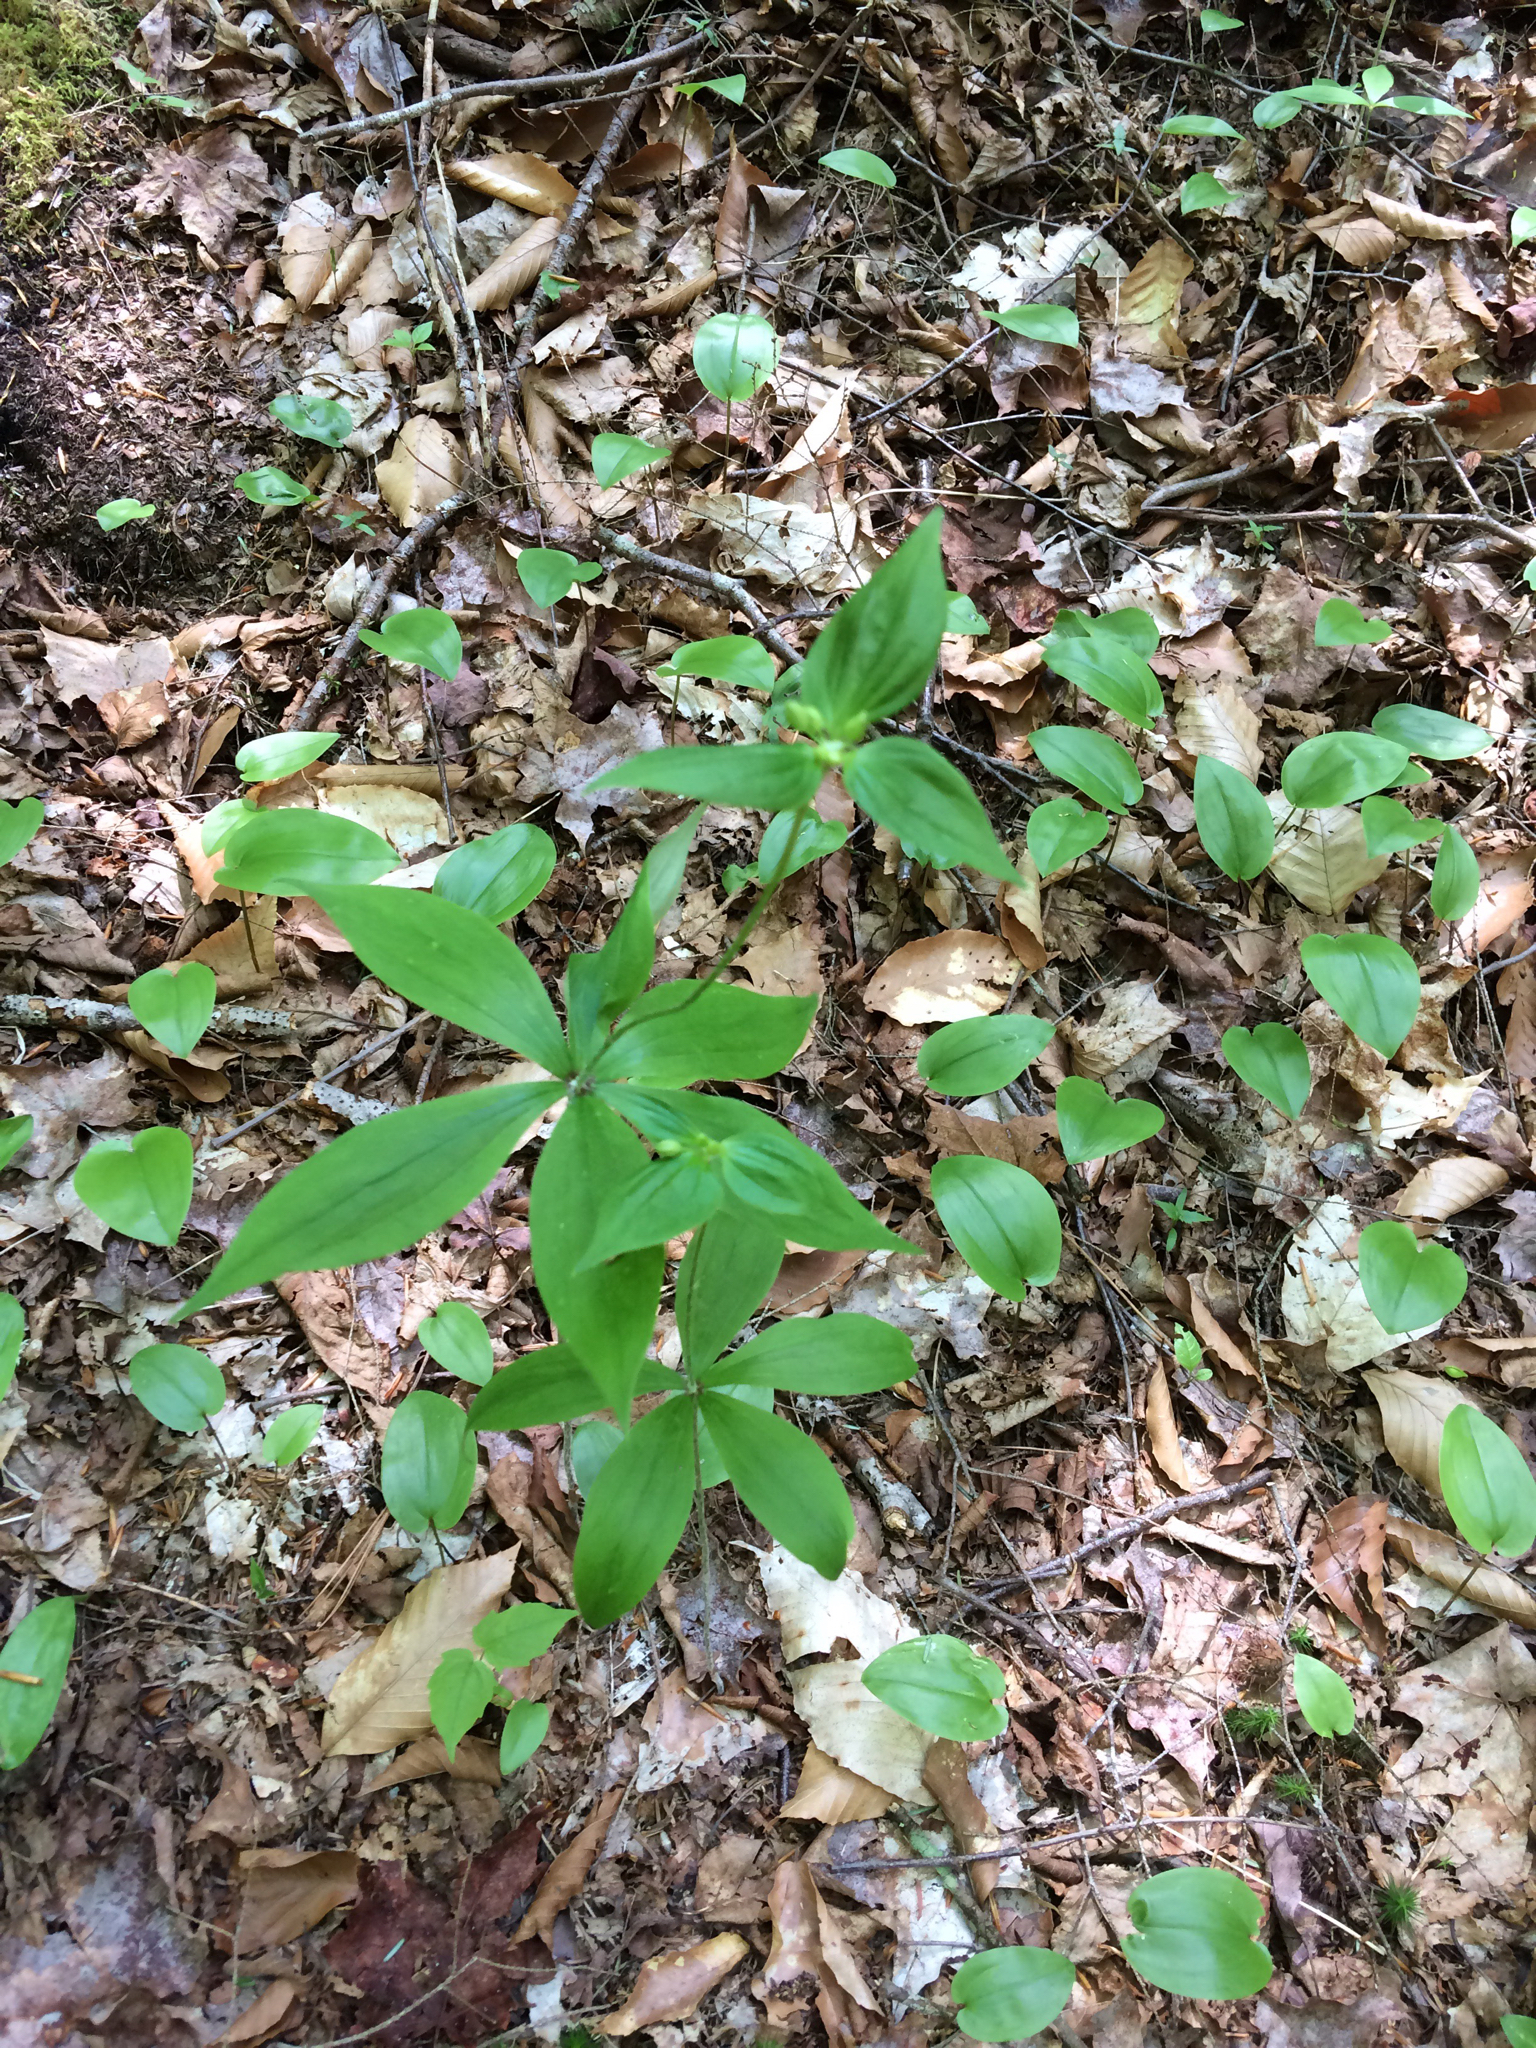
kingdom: Plantae
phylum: Tracheophyta
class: Liliopsida
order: Liliales
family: Liliaceae
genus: Medeola
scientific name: Medeola virginiana
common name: Indian cucumber-root
